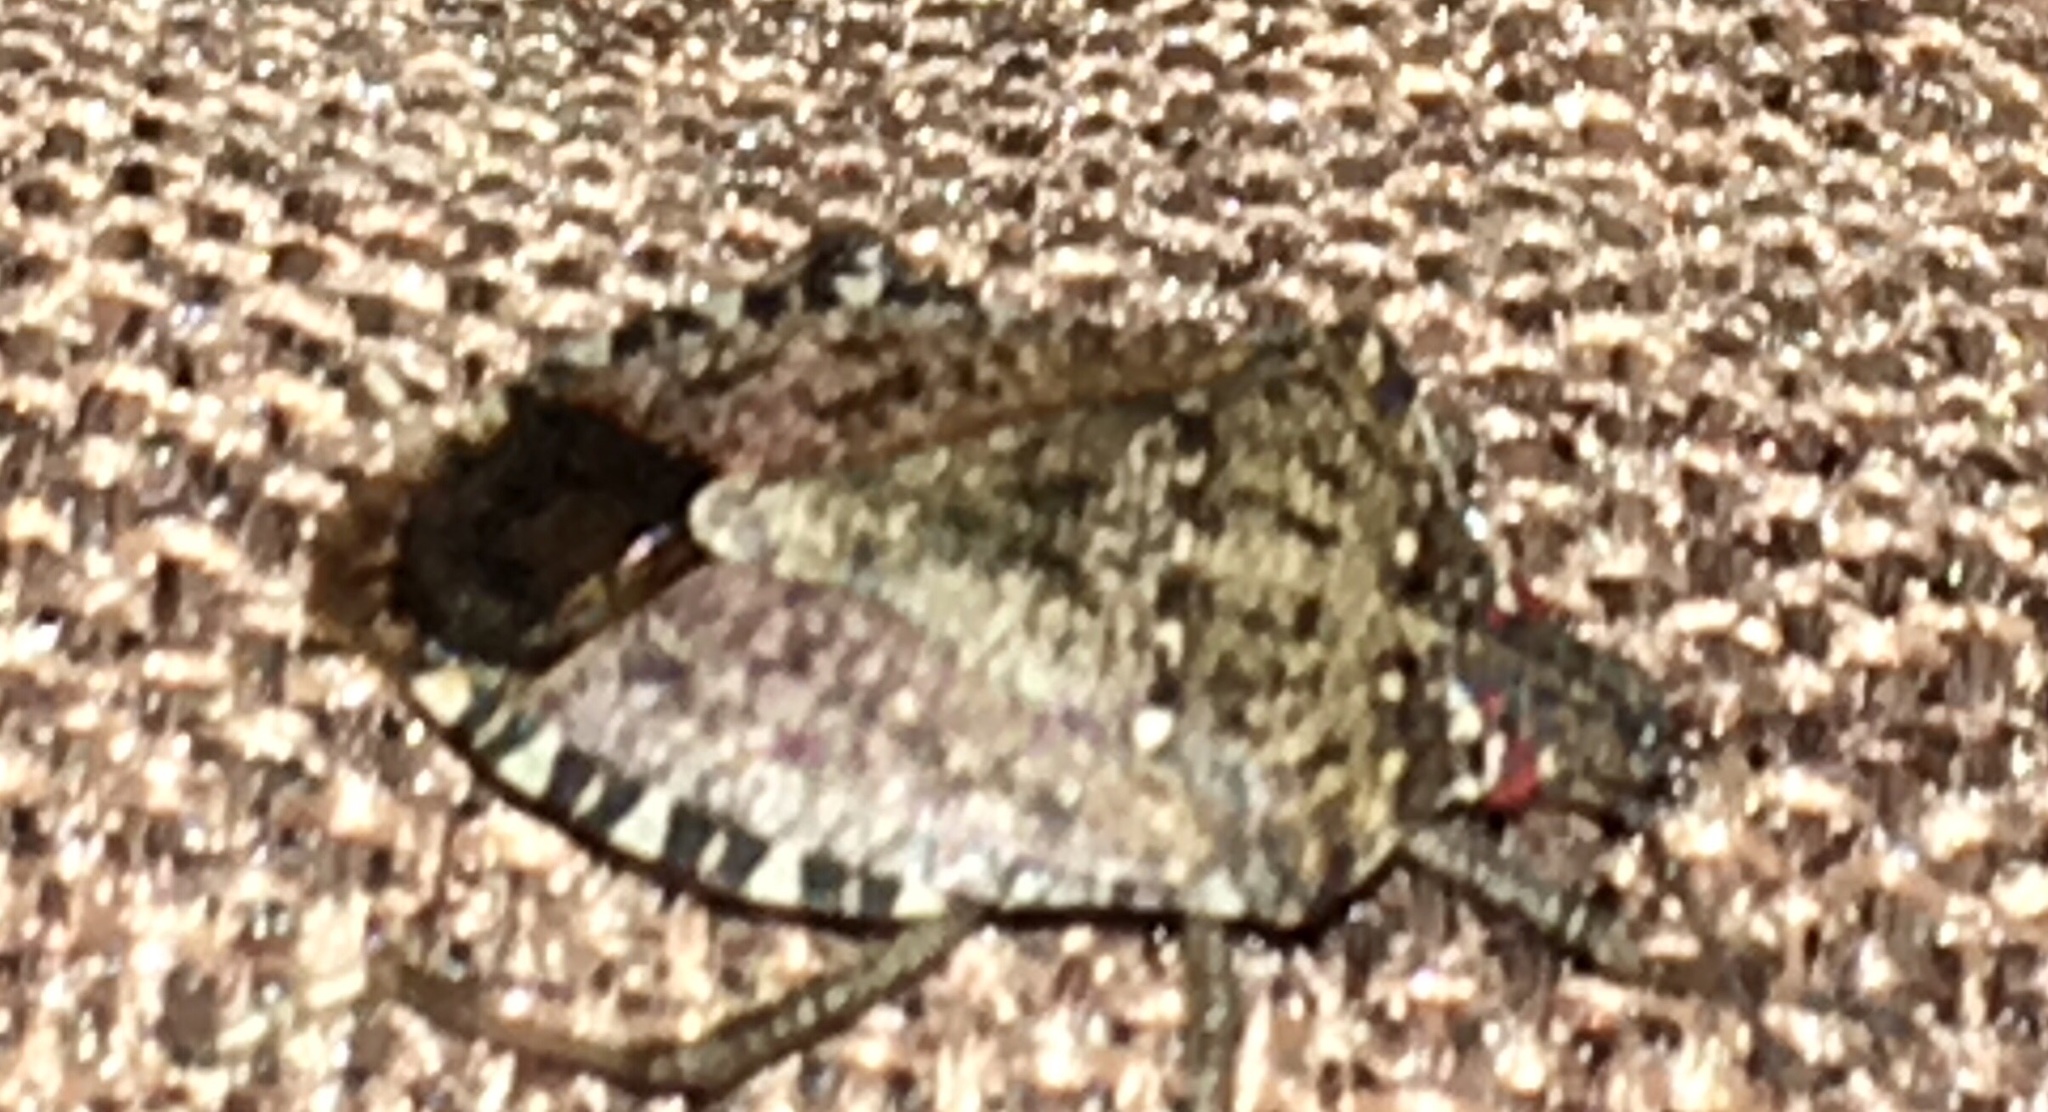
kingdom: Animalia
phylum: Arthropoda
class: Insecta
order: Hemiptera
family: Pentatomidae
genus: Halyomorpha
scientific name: Halyomorpha halys
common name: Brown marmorated stink bug
